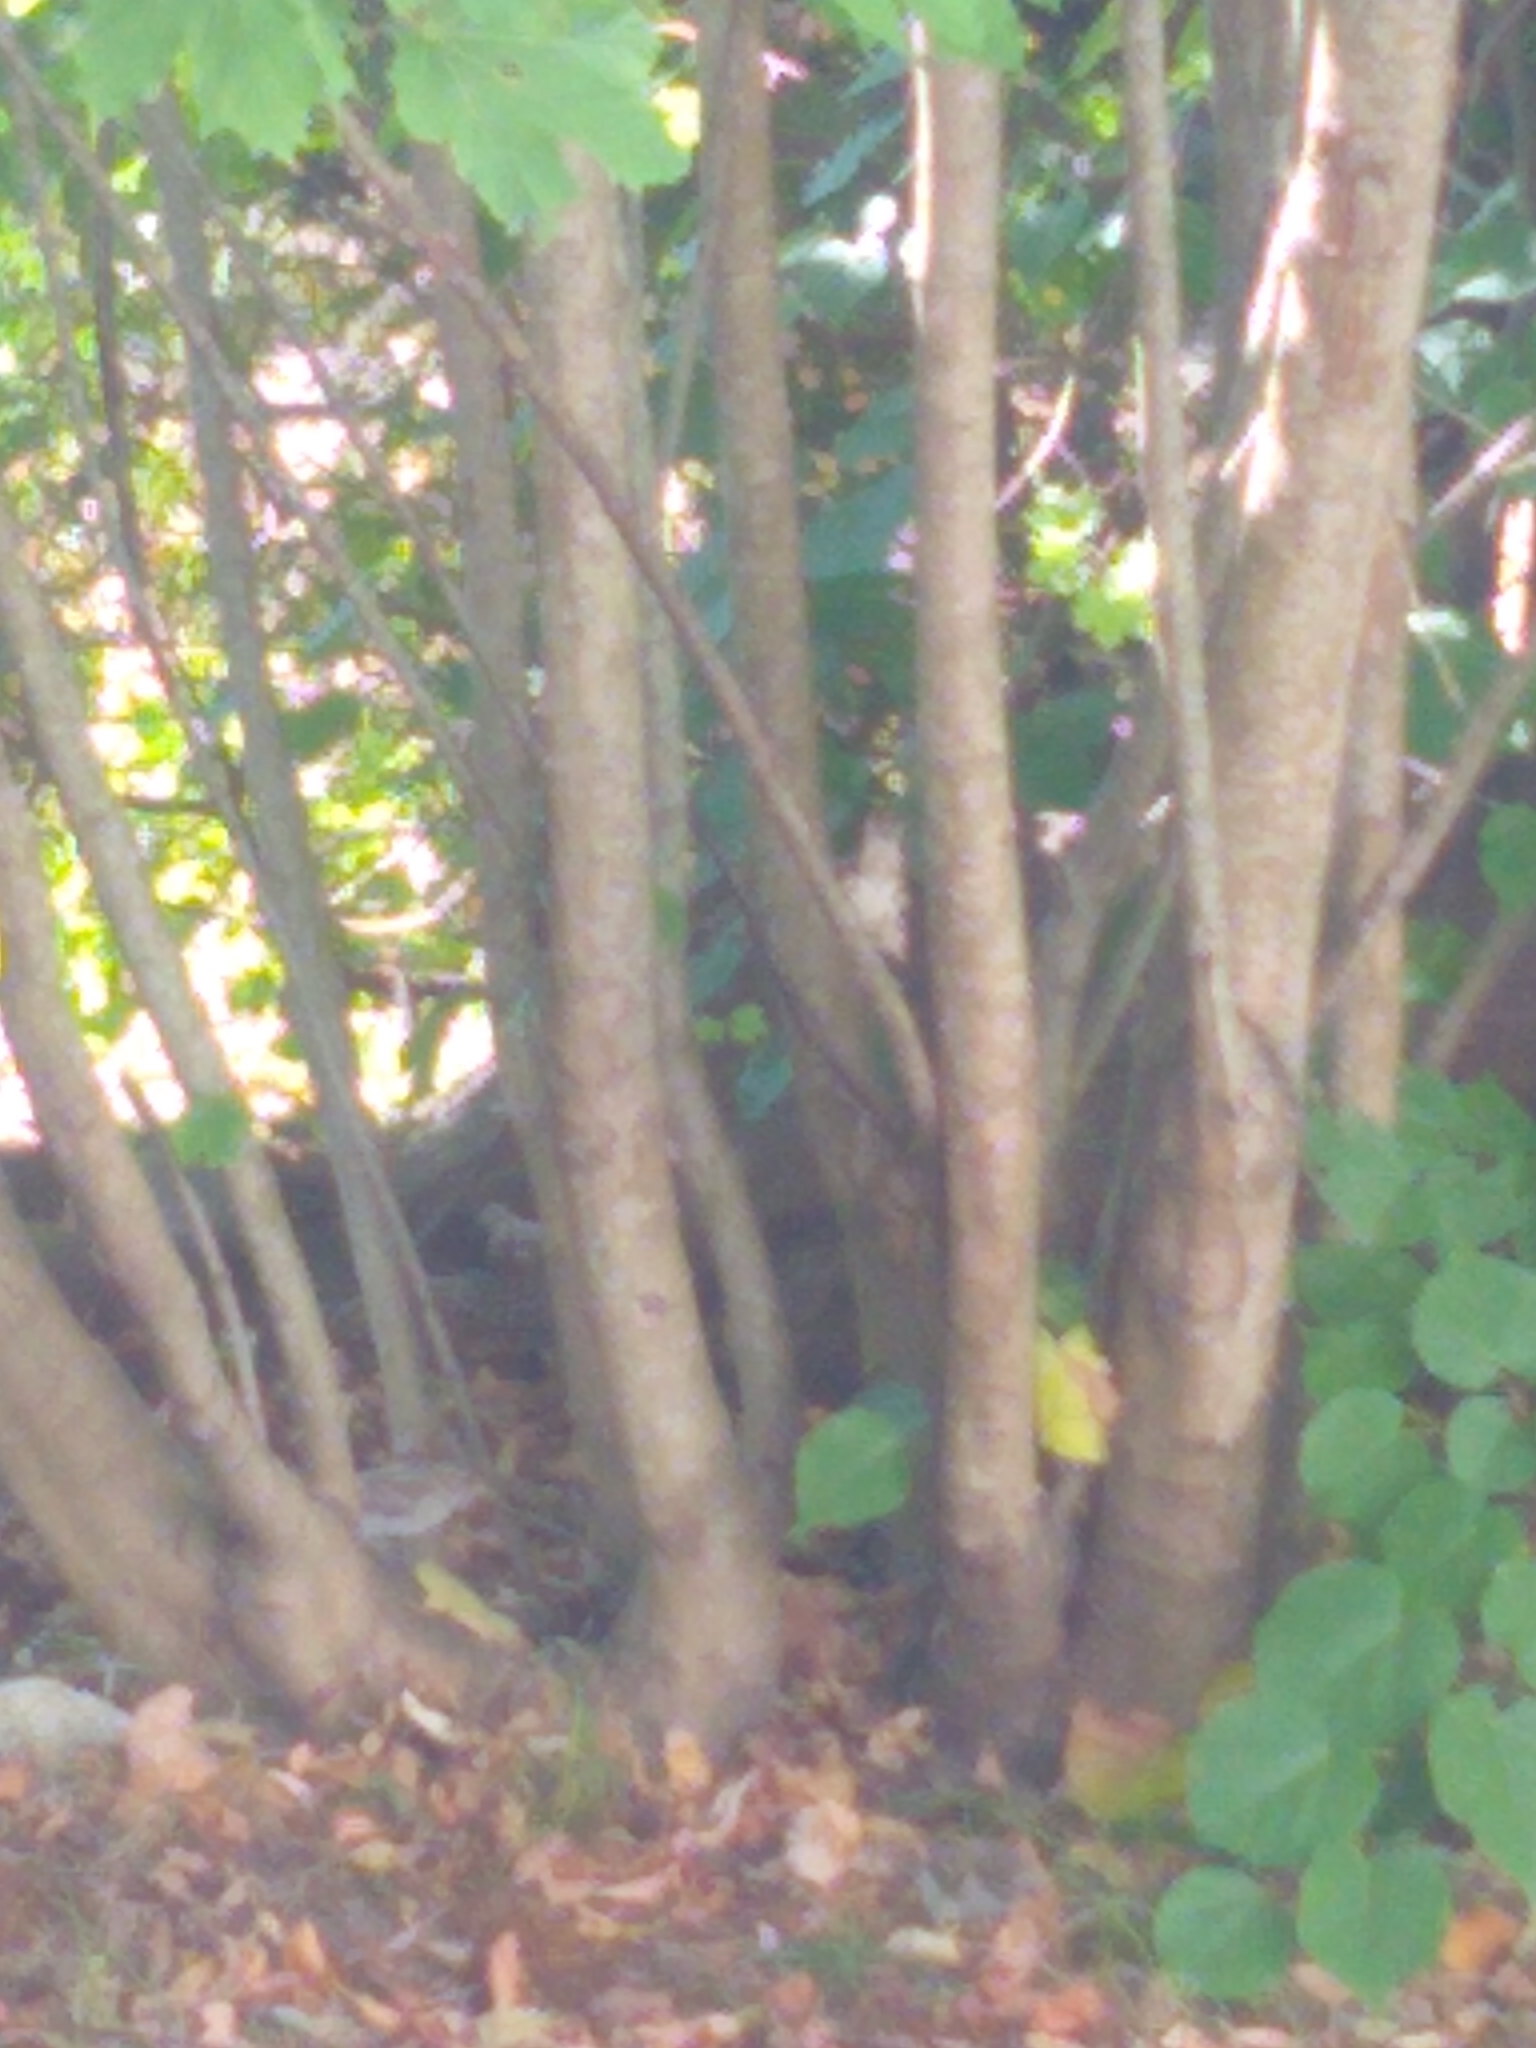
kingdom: Animalia
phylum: Chordata
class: Aves
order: Passeriformes
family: Passeridae
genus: Passer
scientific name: Passer domesticus
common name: House sparrow
